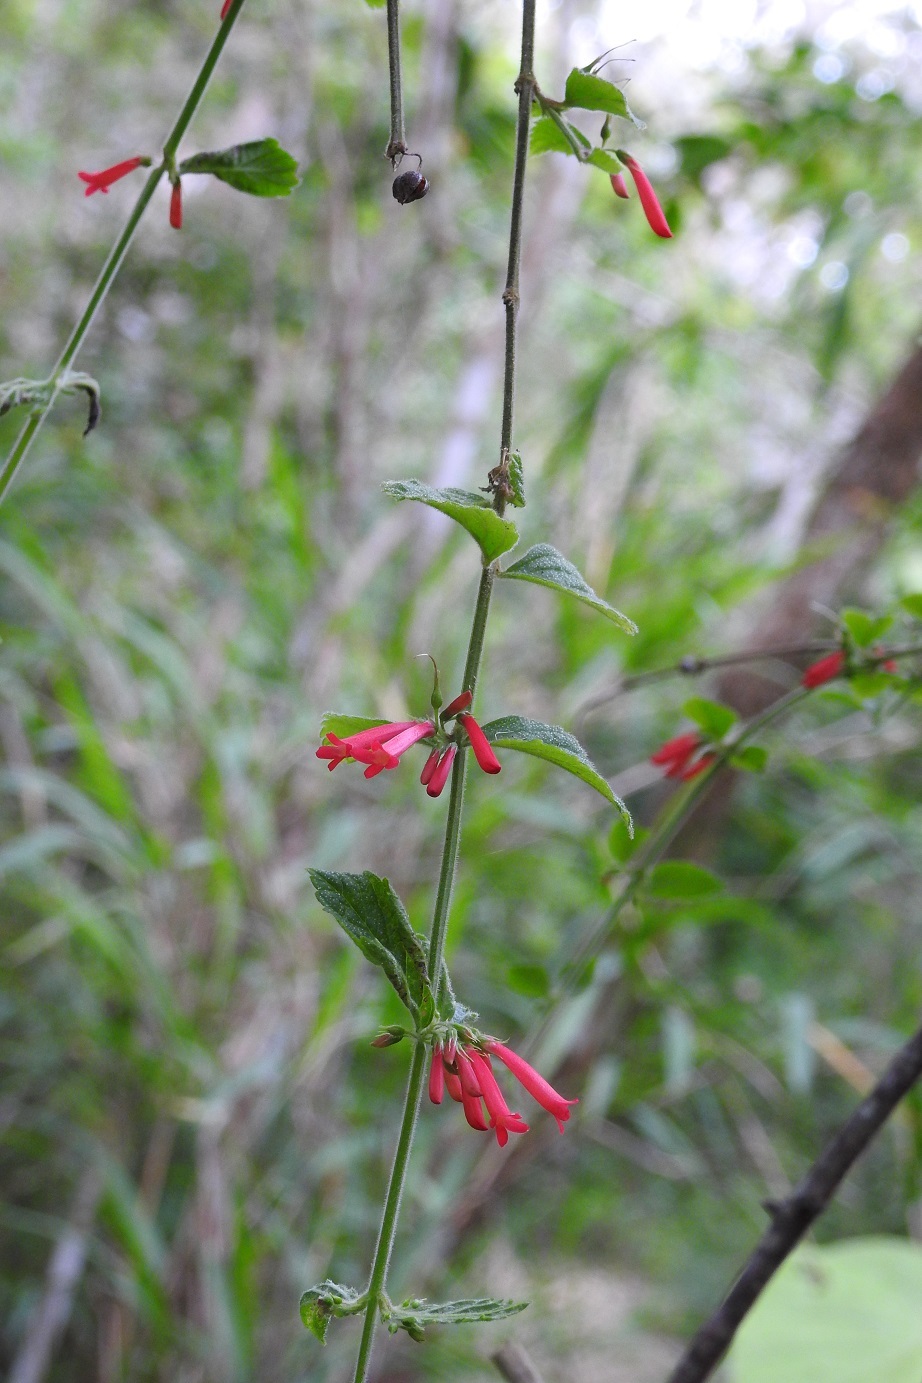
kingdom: Plantae
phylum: Tracheophyta
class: Magnoliopsida
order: Lamiales
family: Plantaginaceae
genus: Russelia
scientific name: Russelia sarmentosa
